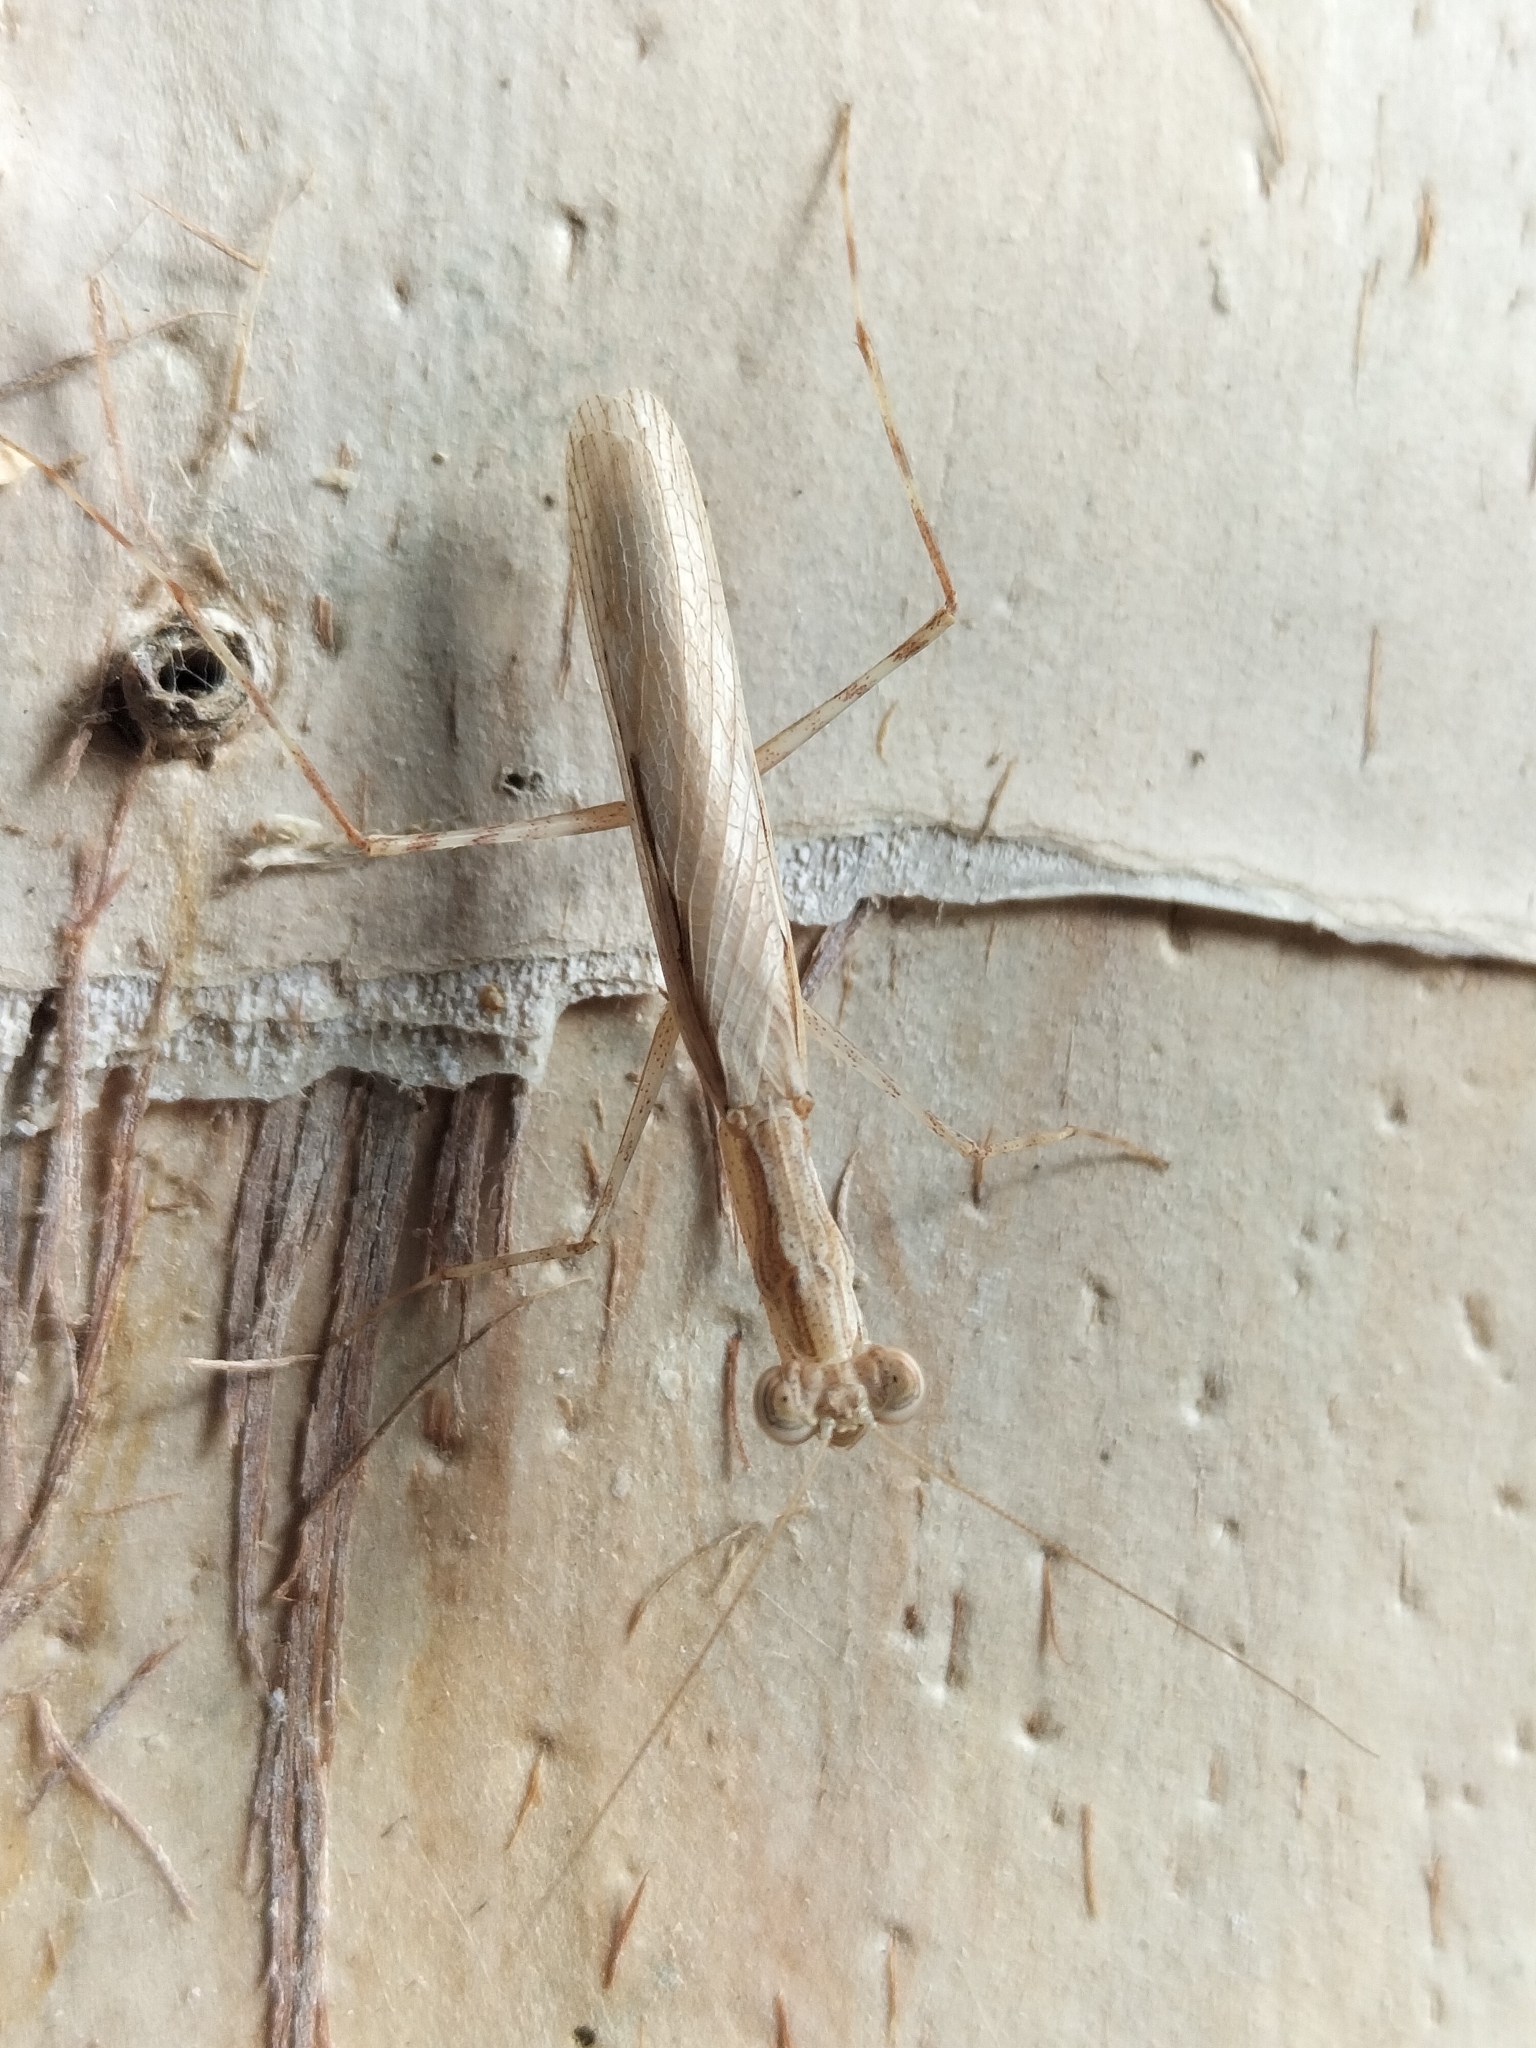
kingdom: Animalia
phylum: Arthropoda
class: Insecta
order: Mantodea
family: Nanomantidae
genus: Ima
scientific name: Ima fusca
